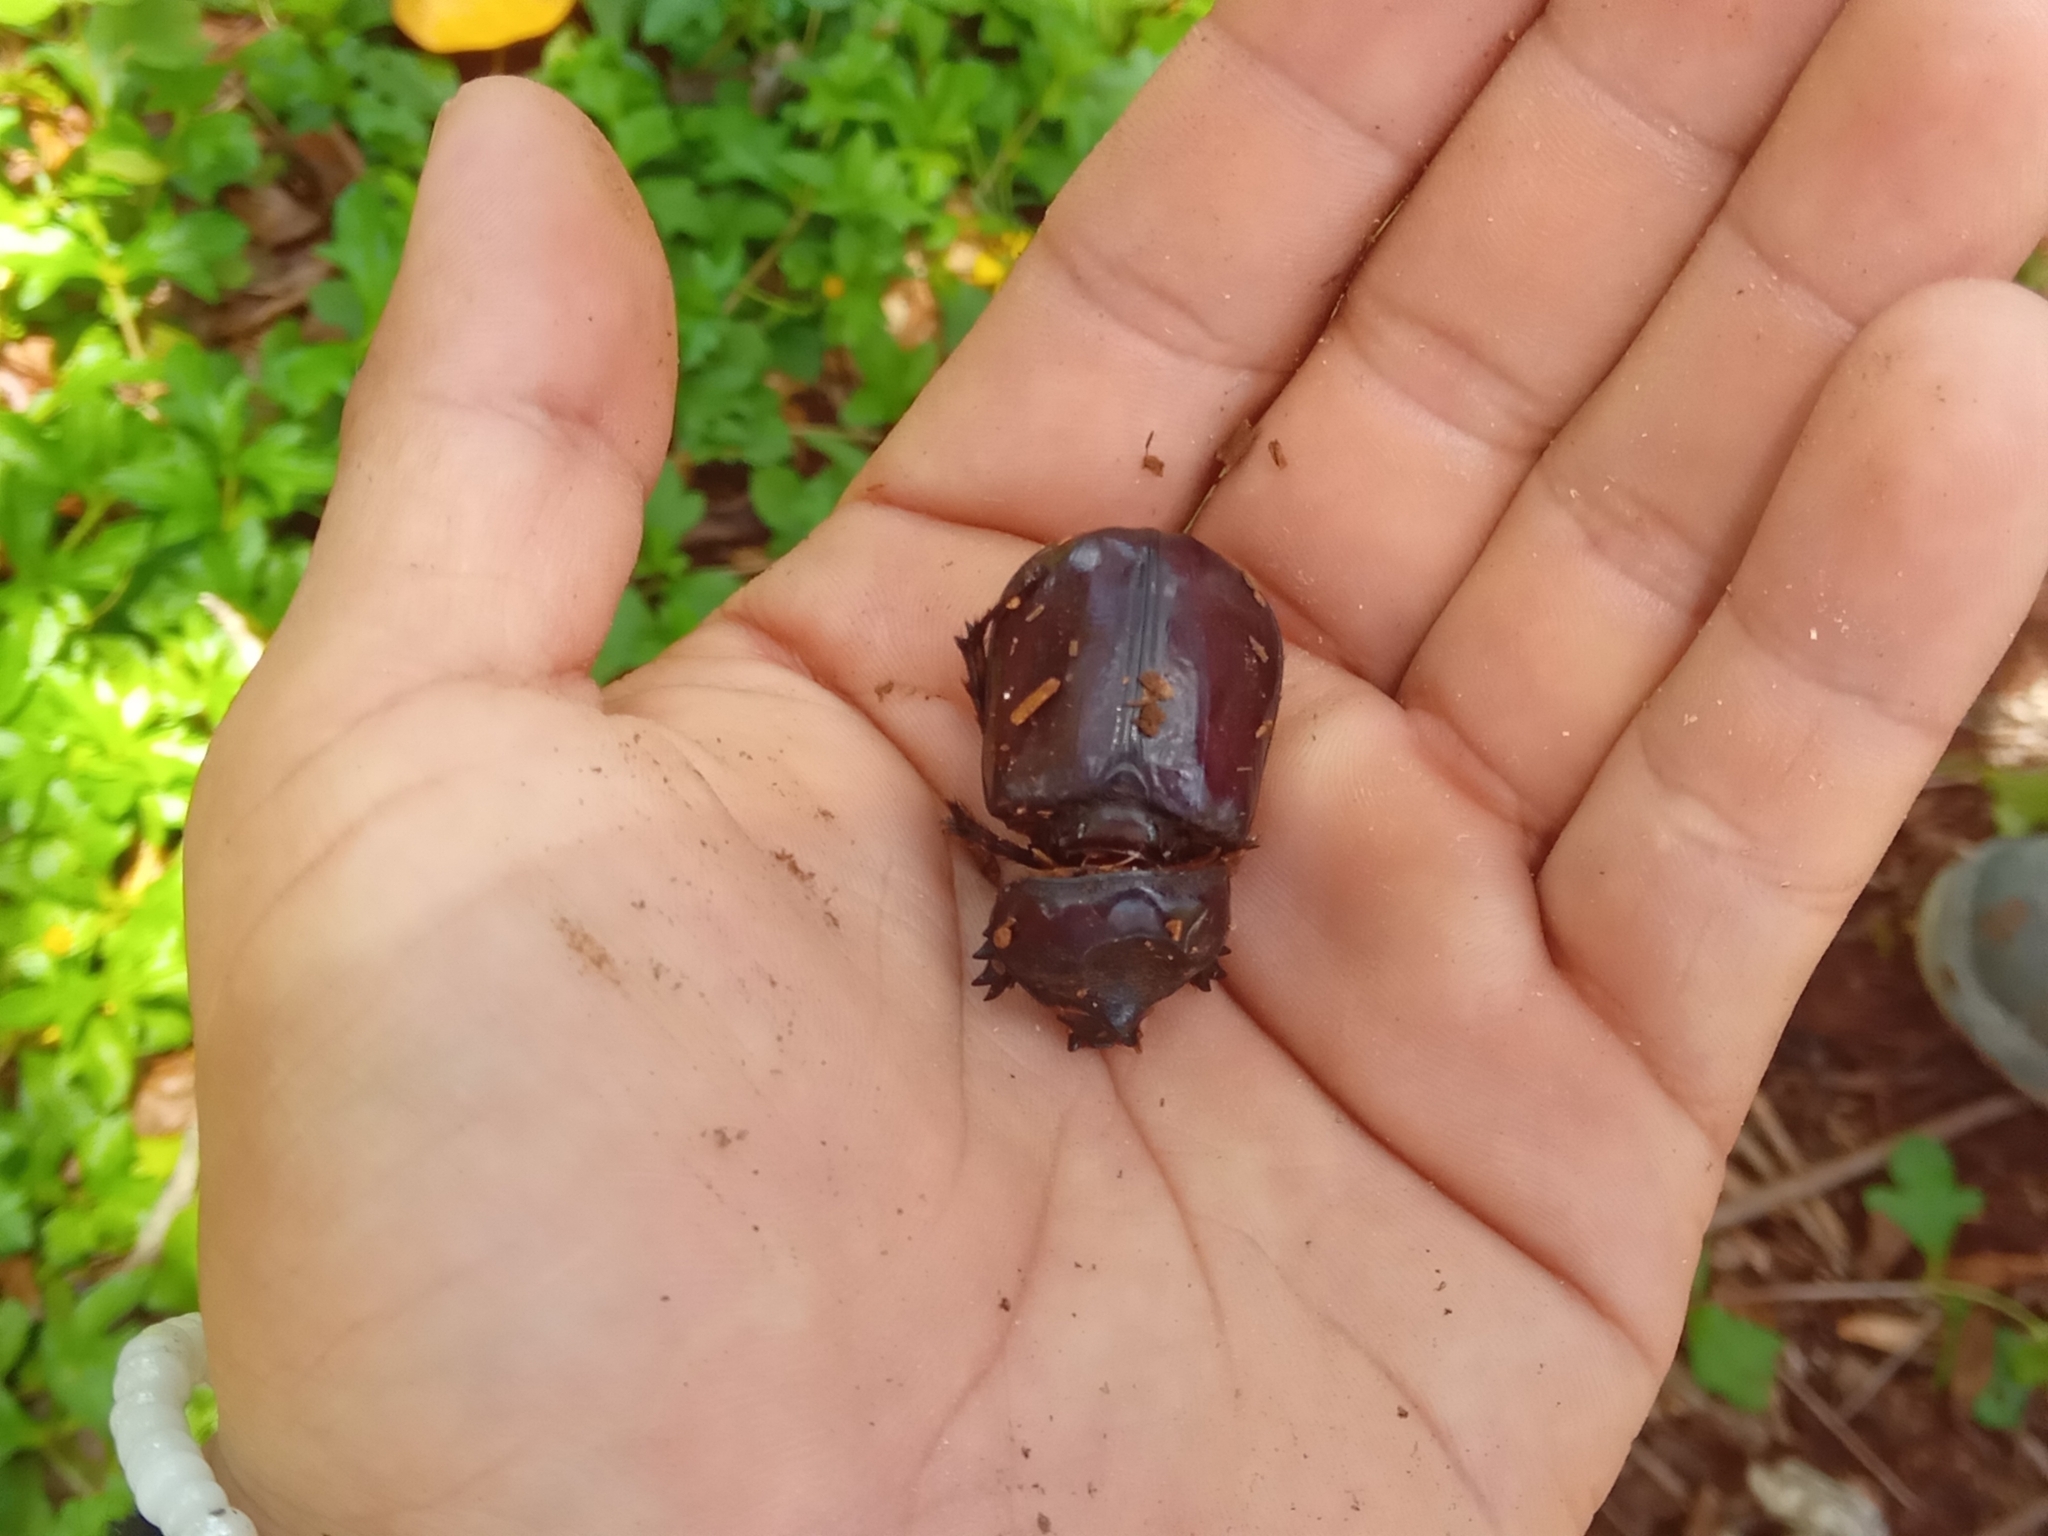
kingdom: Animalia
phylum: Arthropoda
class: Insecta
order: Coleoptera
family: Scarabaeidae
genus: Strategus
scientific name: Strategus aloeus
